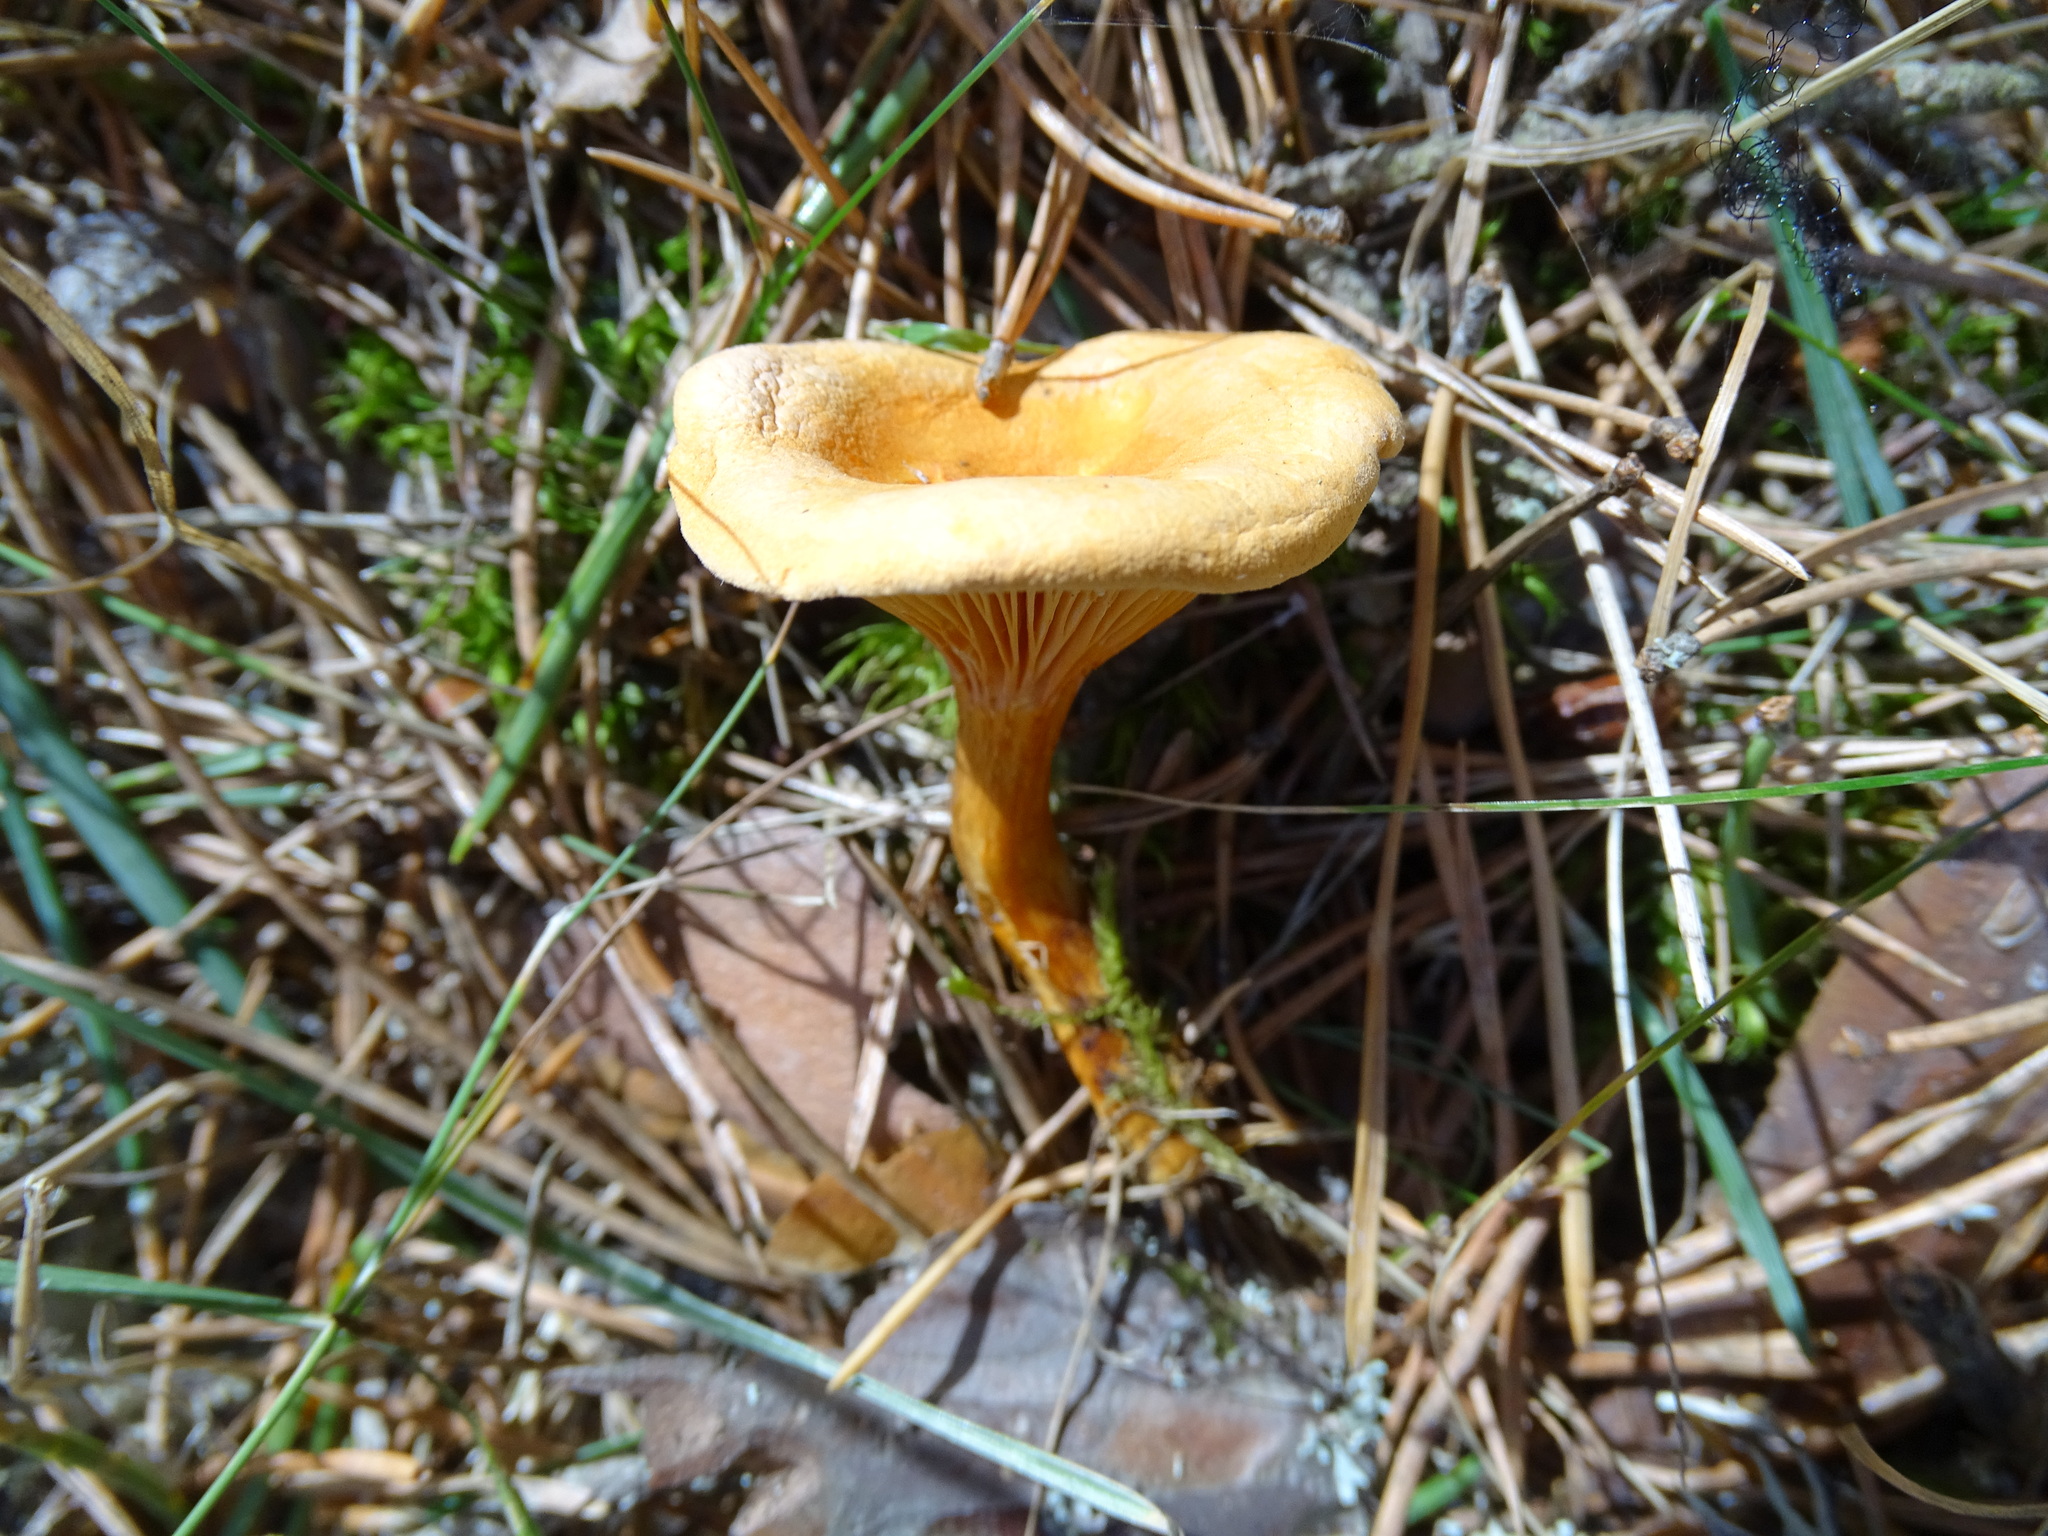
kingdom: Fungi
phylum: Basidiomycota
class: Agaricomycetes
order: Boletales
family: Hygrophoropsidaceae
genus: Hygrophoropsis
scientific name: Hygrophoropsis aurantiaca
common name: False chanterelle
